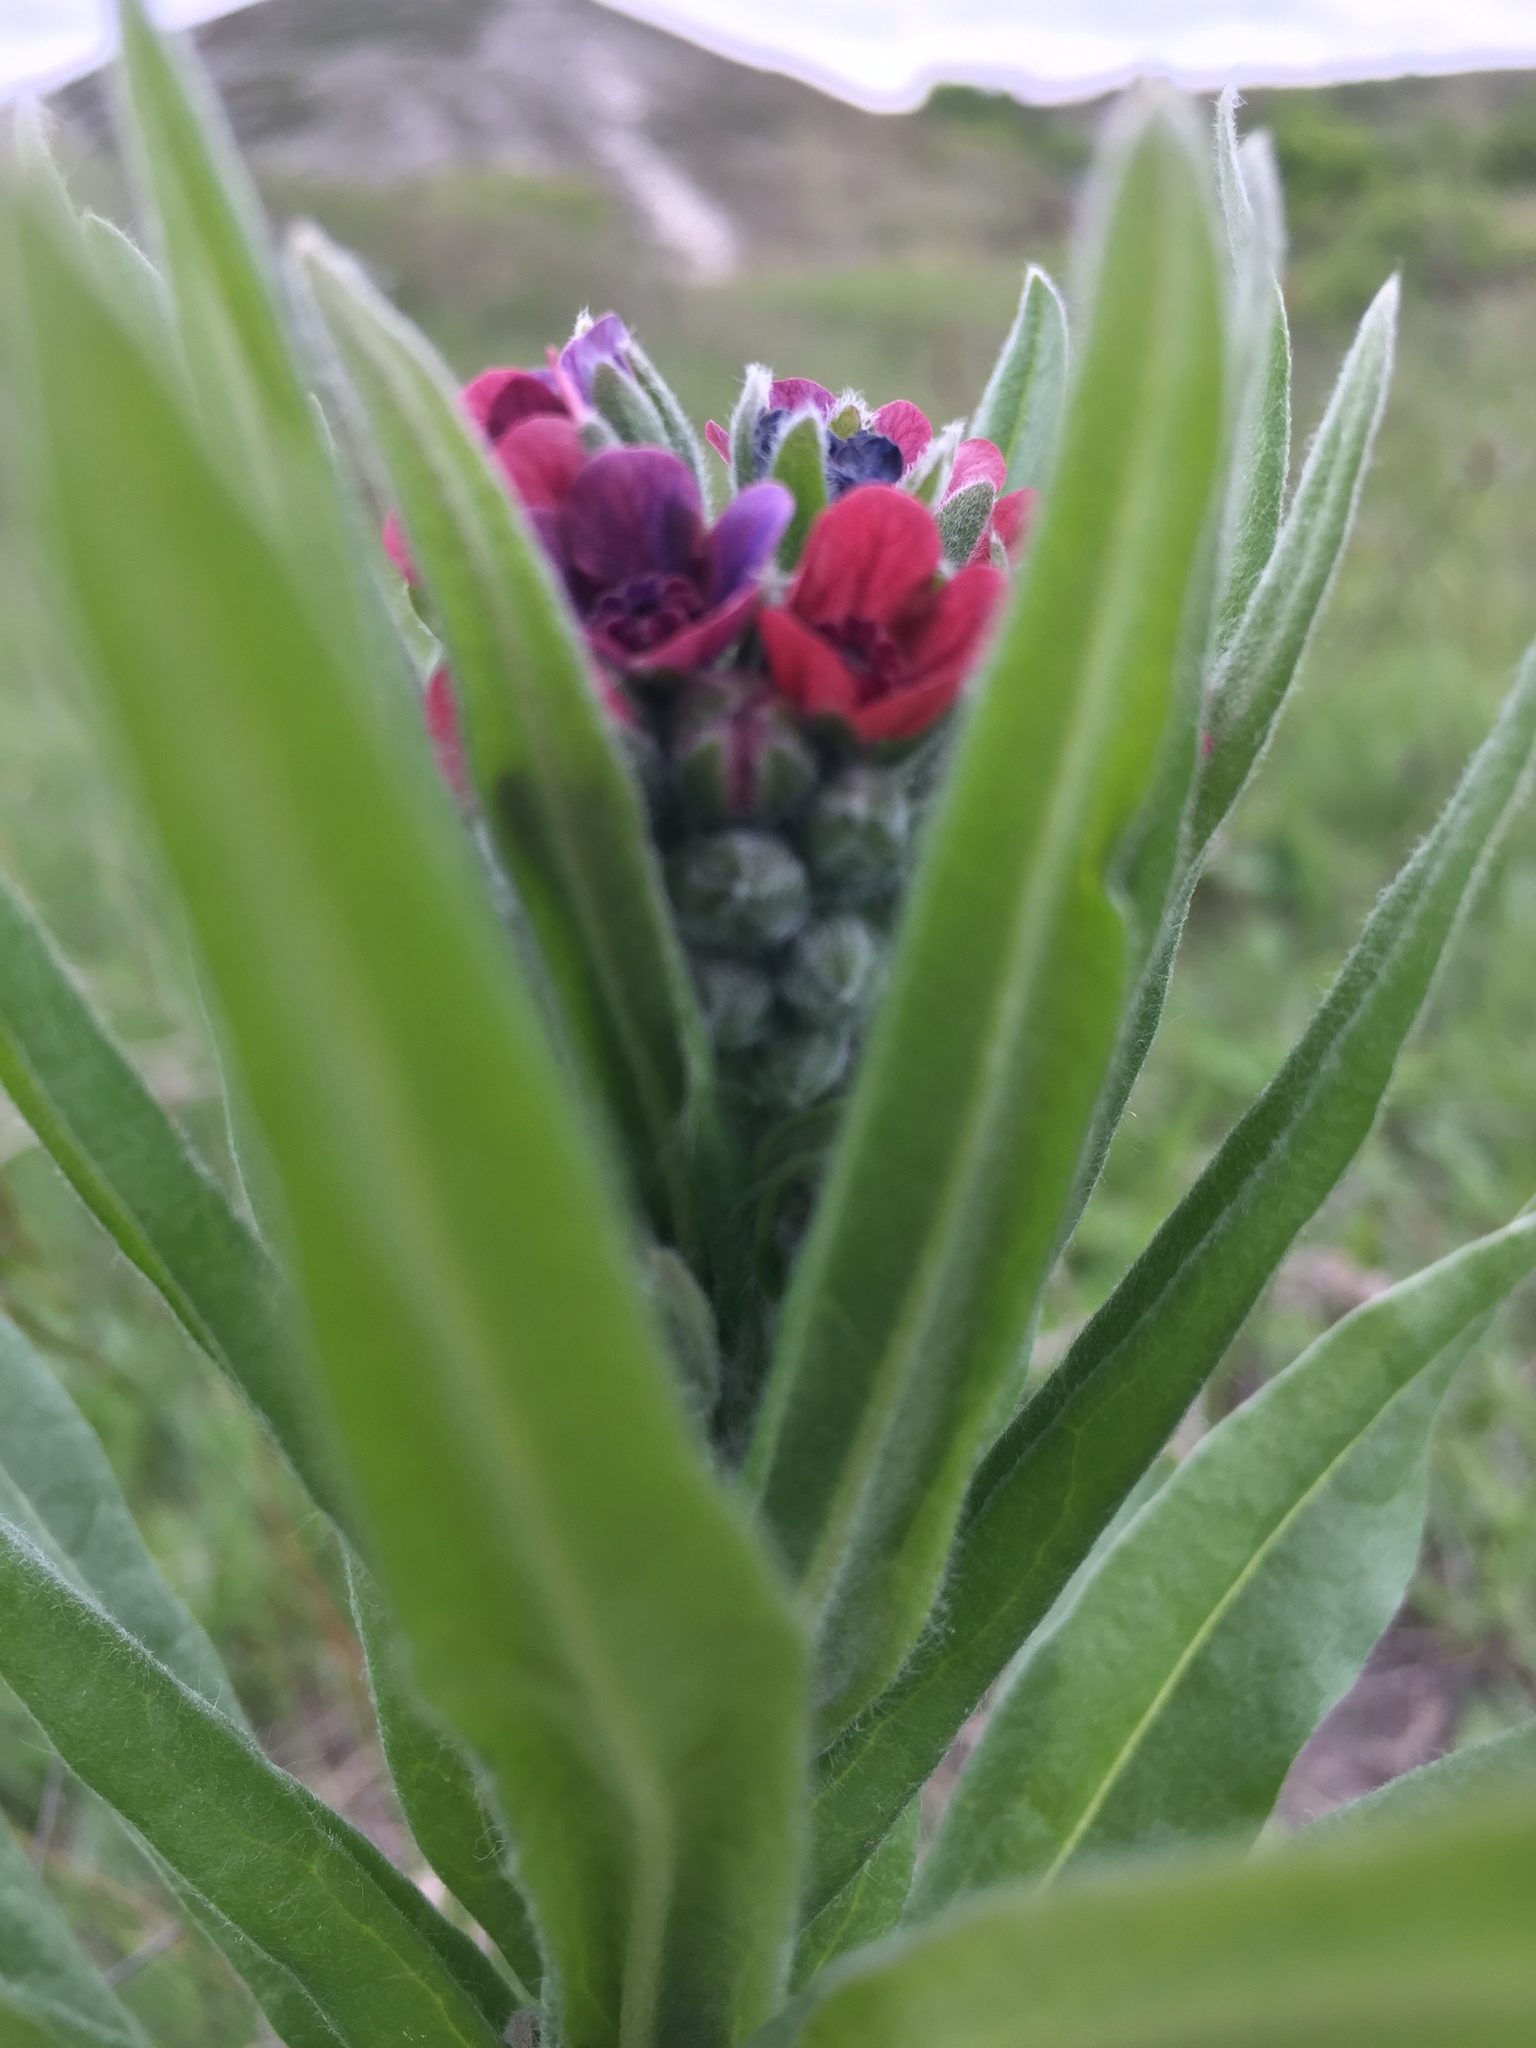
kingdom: Plantae
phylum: Tracheophyta
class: Magnoliopsida
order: Boraginales
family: Boraginaceae
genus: Cynoglossum
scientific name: Cynoglossum officinale
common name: Hound's-tongue
